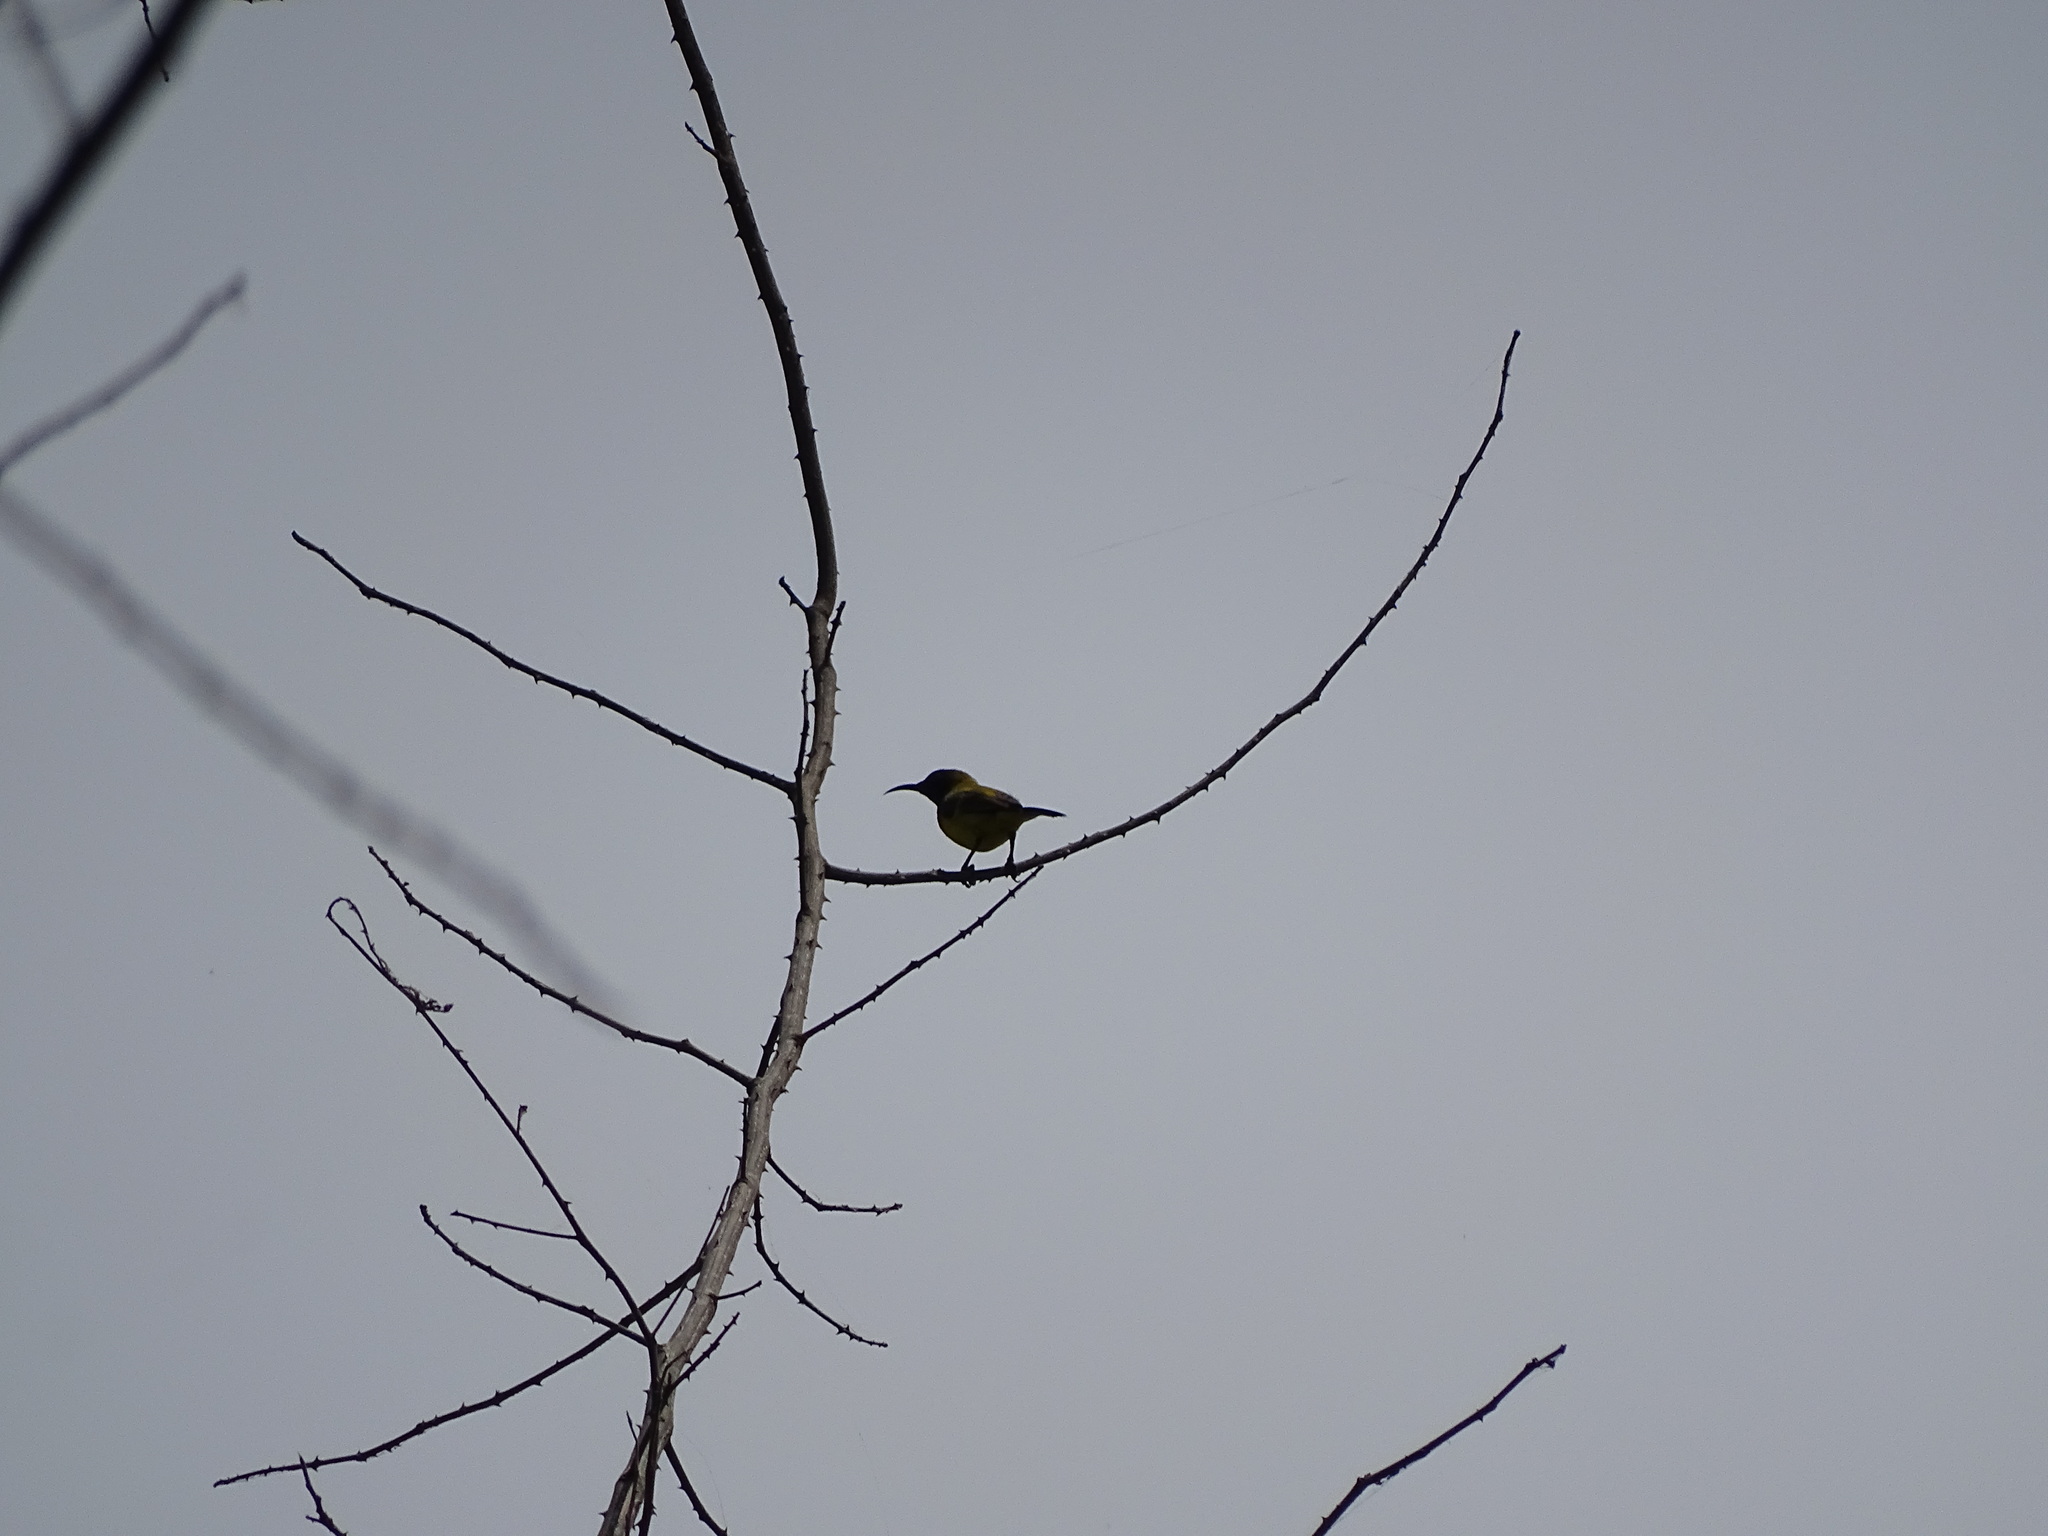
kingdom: Animalia
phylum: Chordata
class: Aves
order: Passeriformes
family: Nectariniidae
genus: Cinnyris
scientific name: Cinnyris
